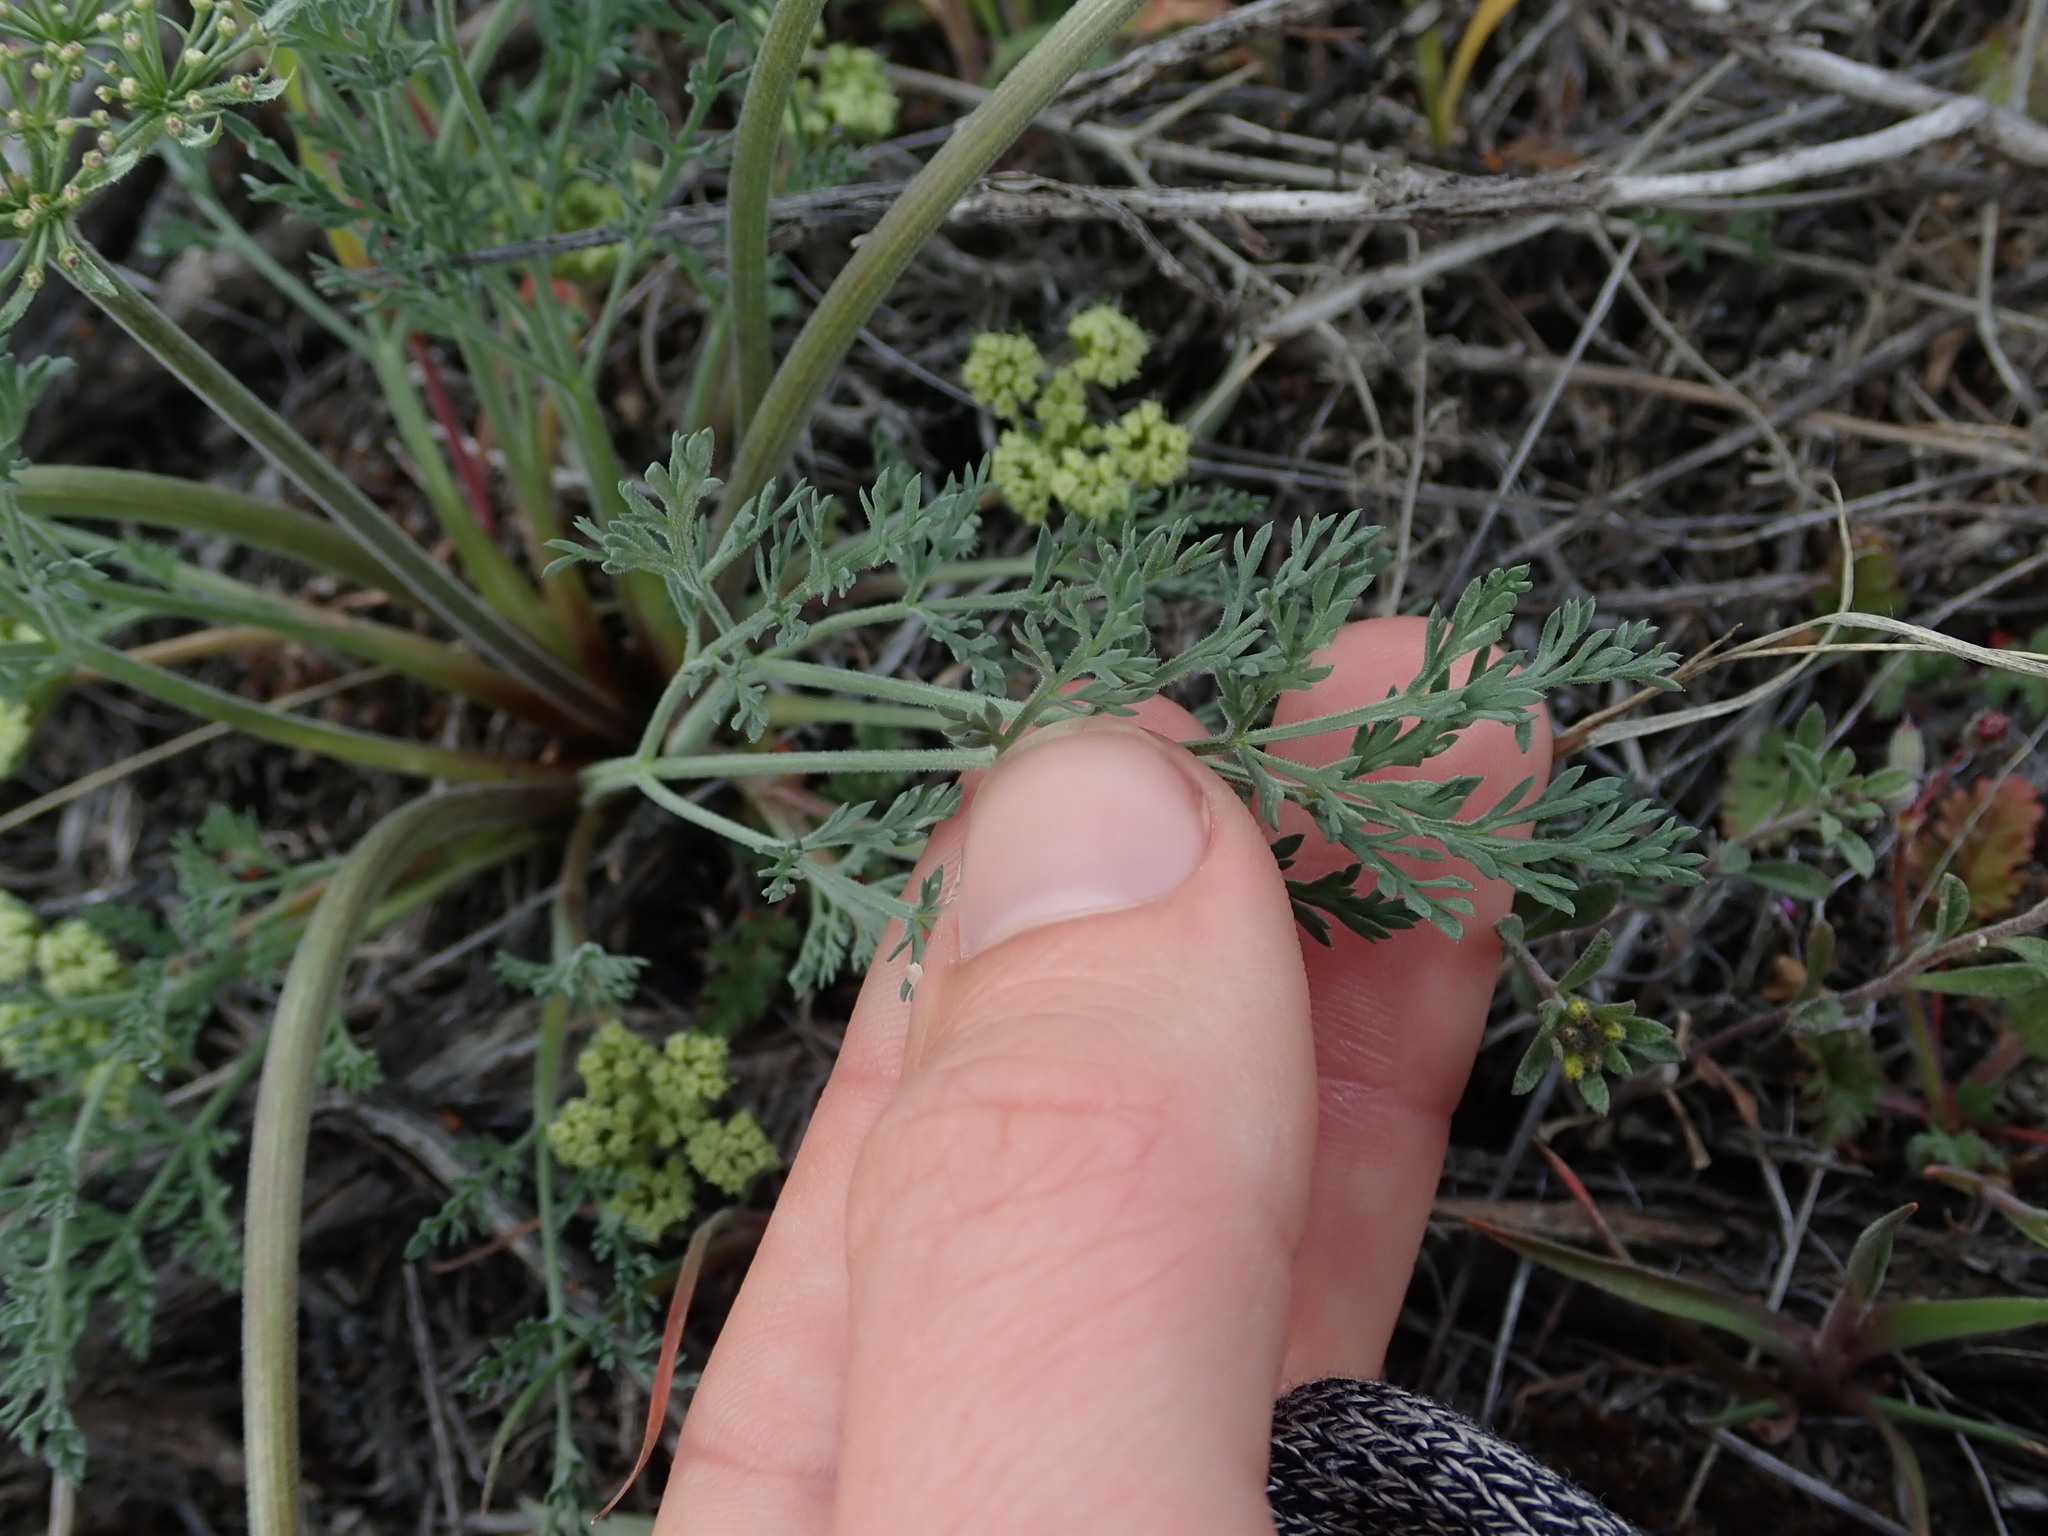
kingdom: Plantae
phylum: Tracheophyta
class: Magnoliopsida
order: Apiales
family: Apiaceae
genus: Lomatium
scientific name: Lomatium macrocarpum
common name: Big-seed biscuitroot
